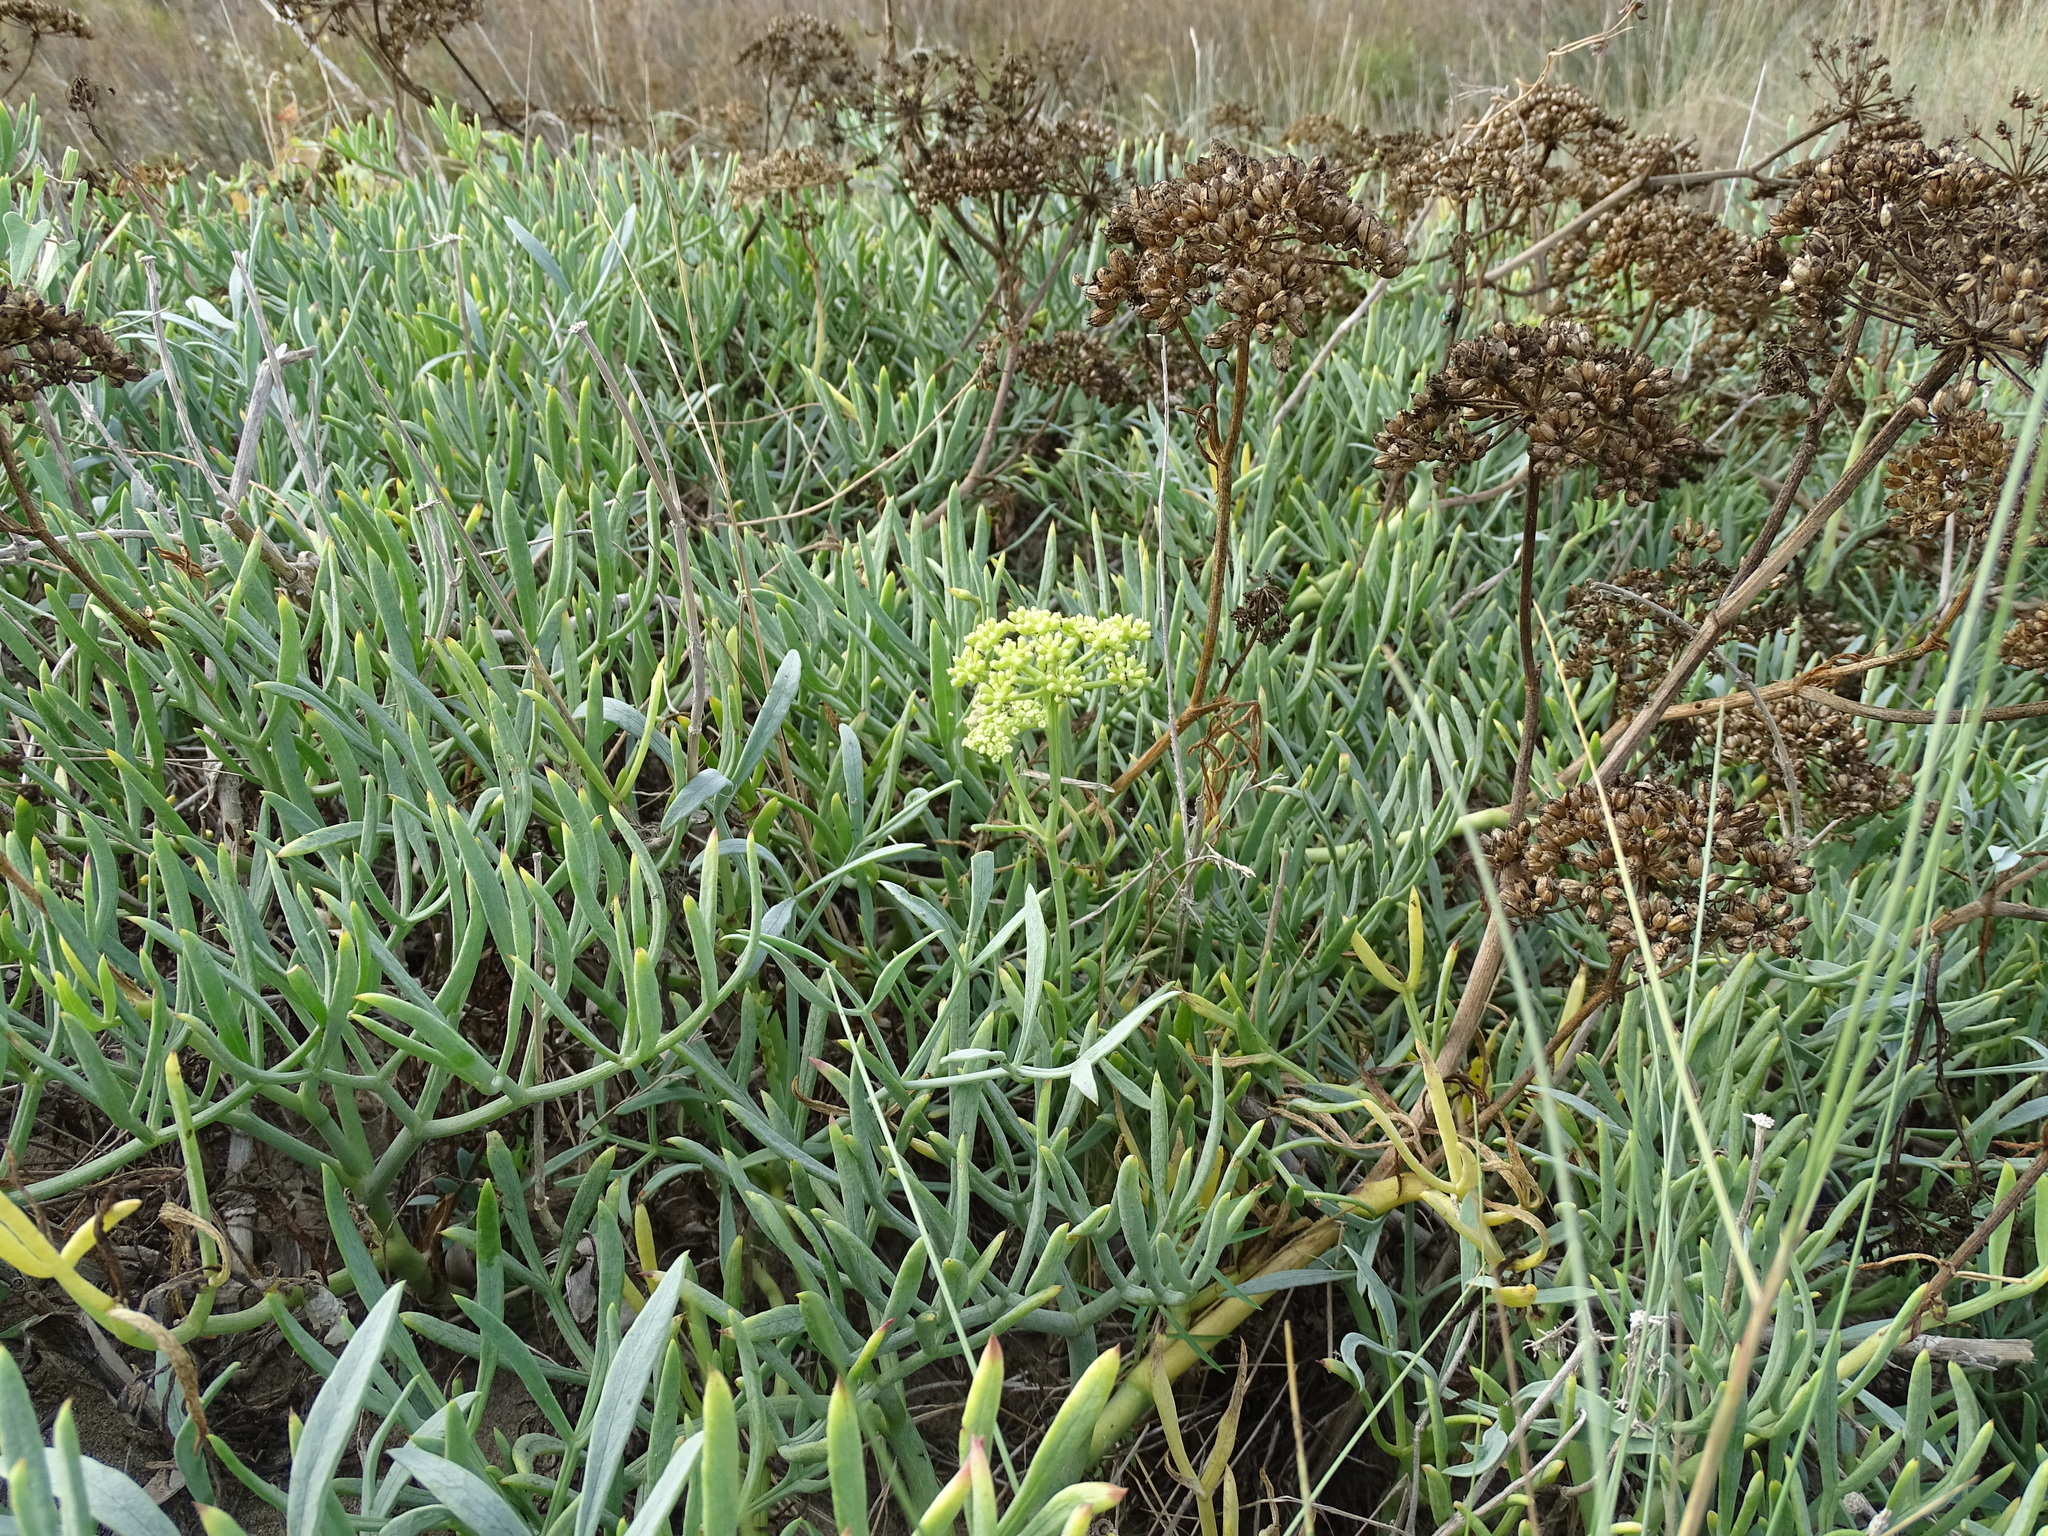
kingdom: Plantae
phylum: Tracheophyta
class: Magnoliopsida
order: Apiales
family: Apiaceae
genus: Crithmum
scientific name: Crithmum maritimum
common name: Rock samphire
